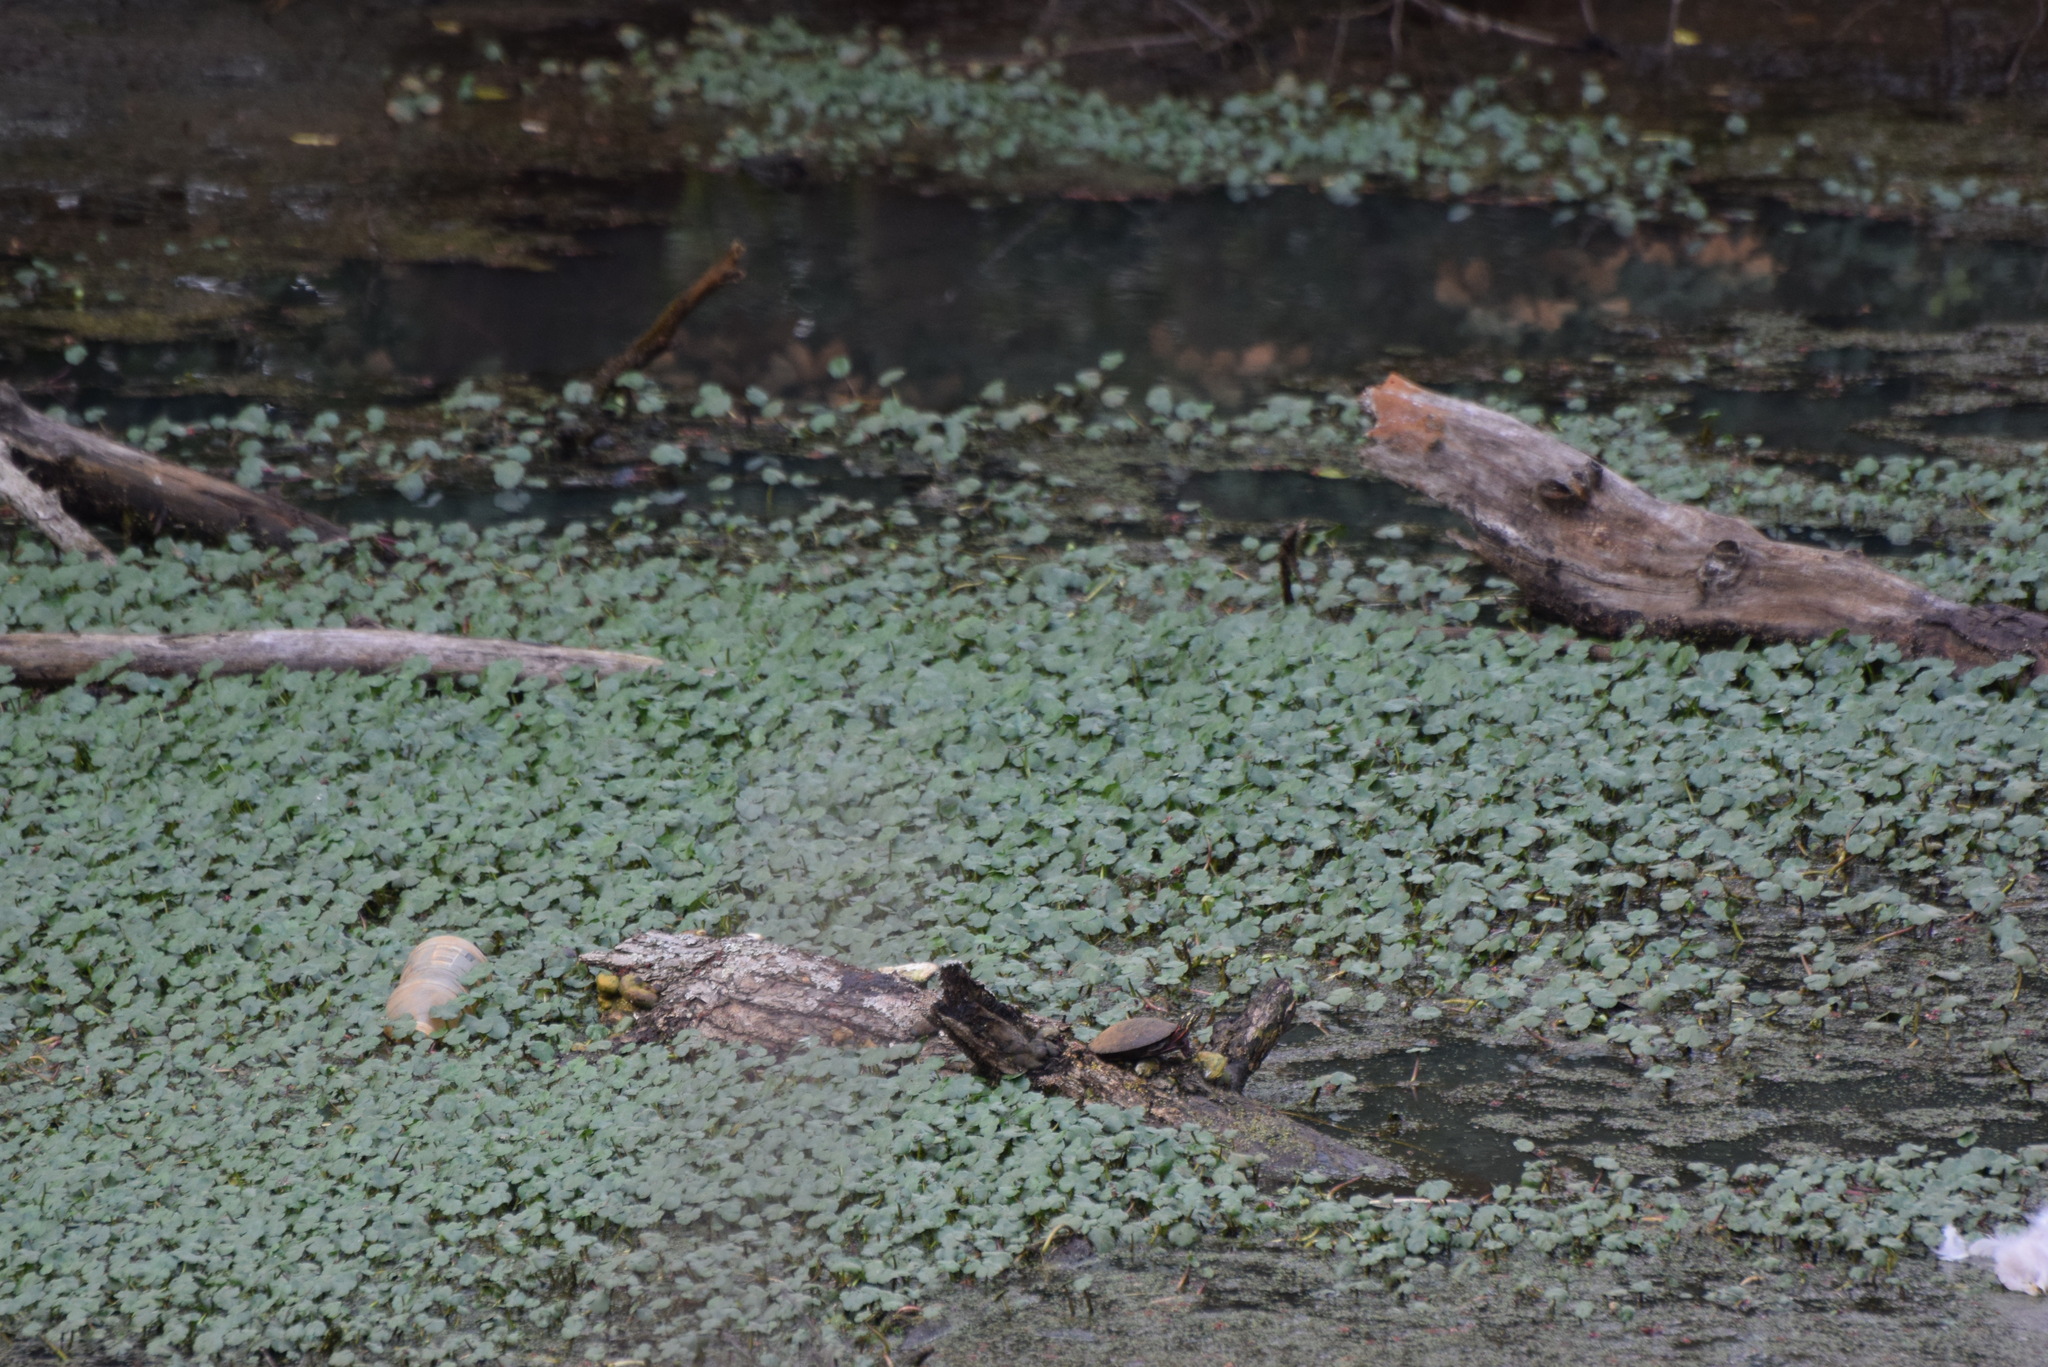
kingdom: Animalia
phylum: Chordata
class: Testudines
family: Emydidae
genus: Chrysemys
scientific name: Chrysemys picta
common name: Painted turtle
